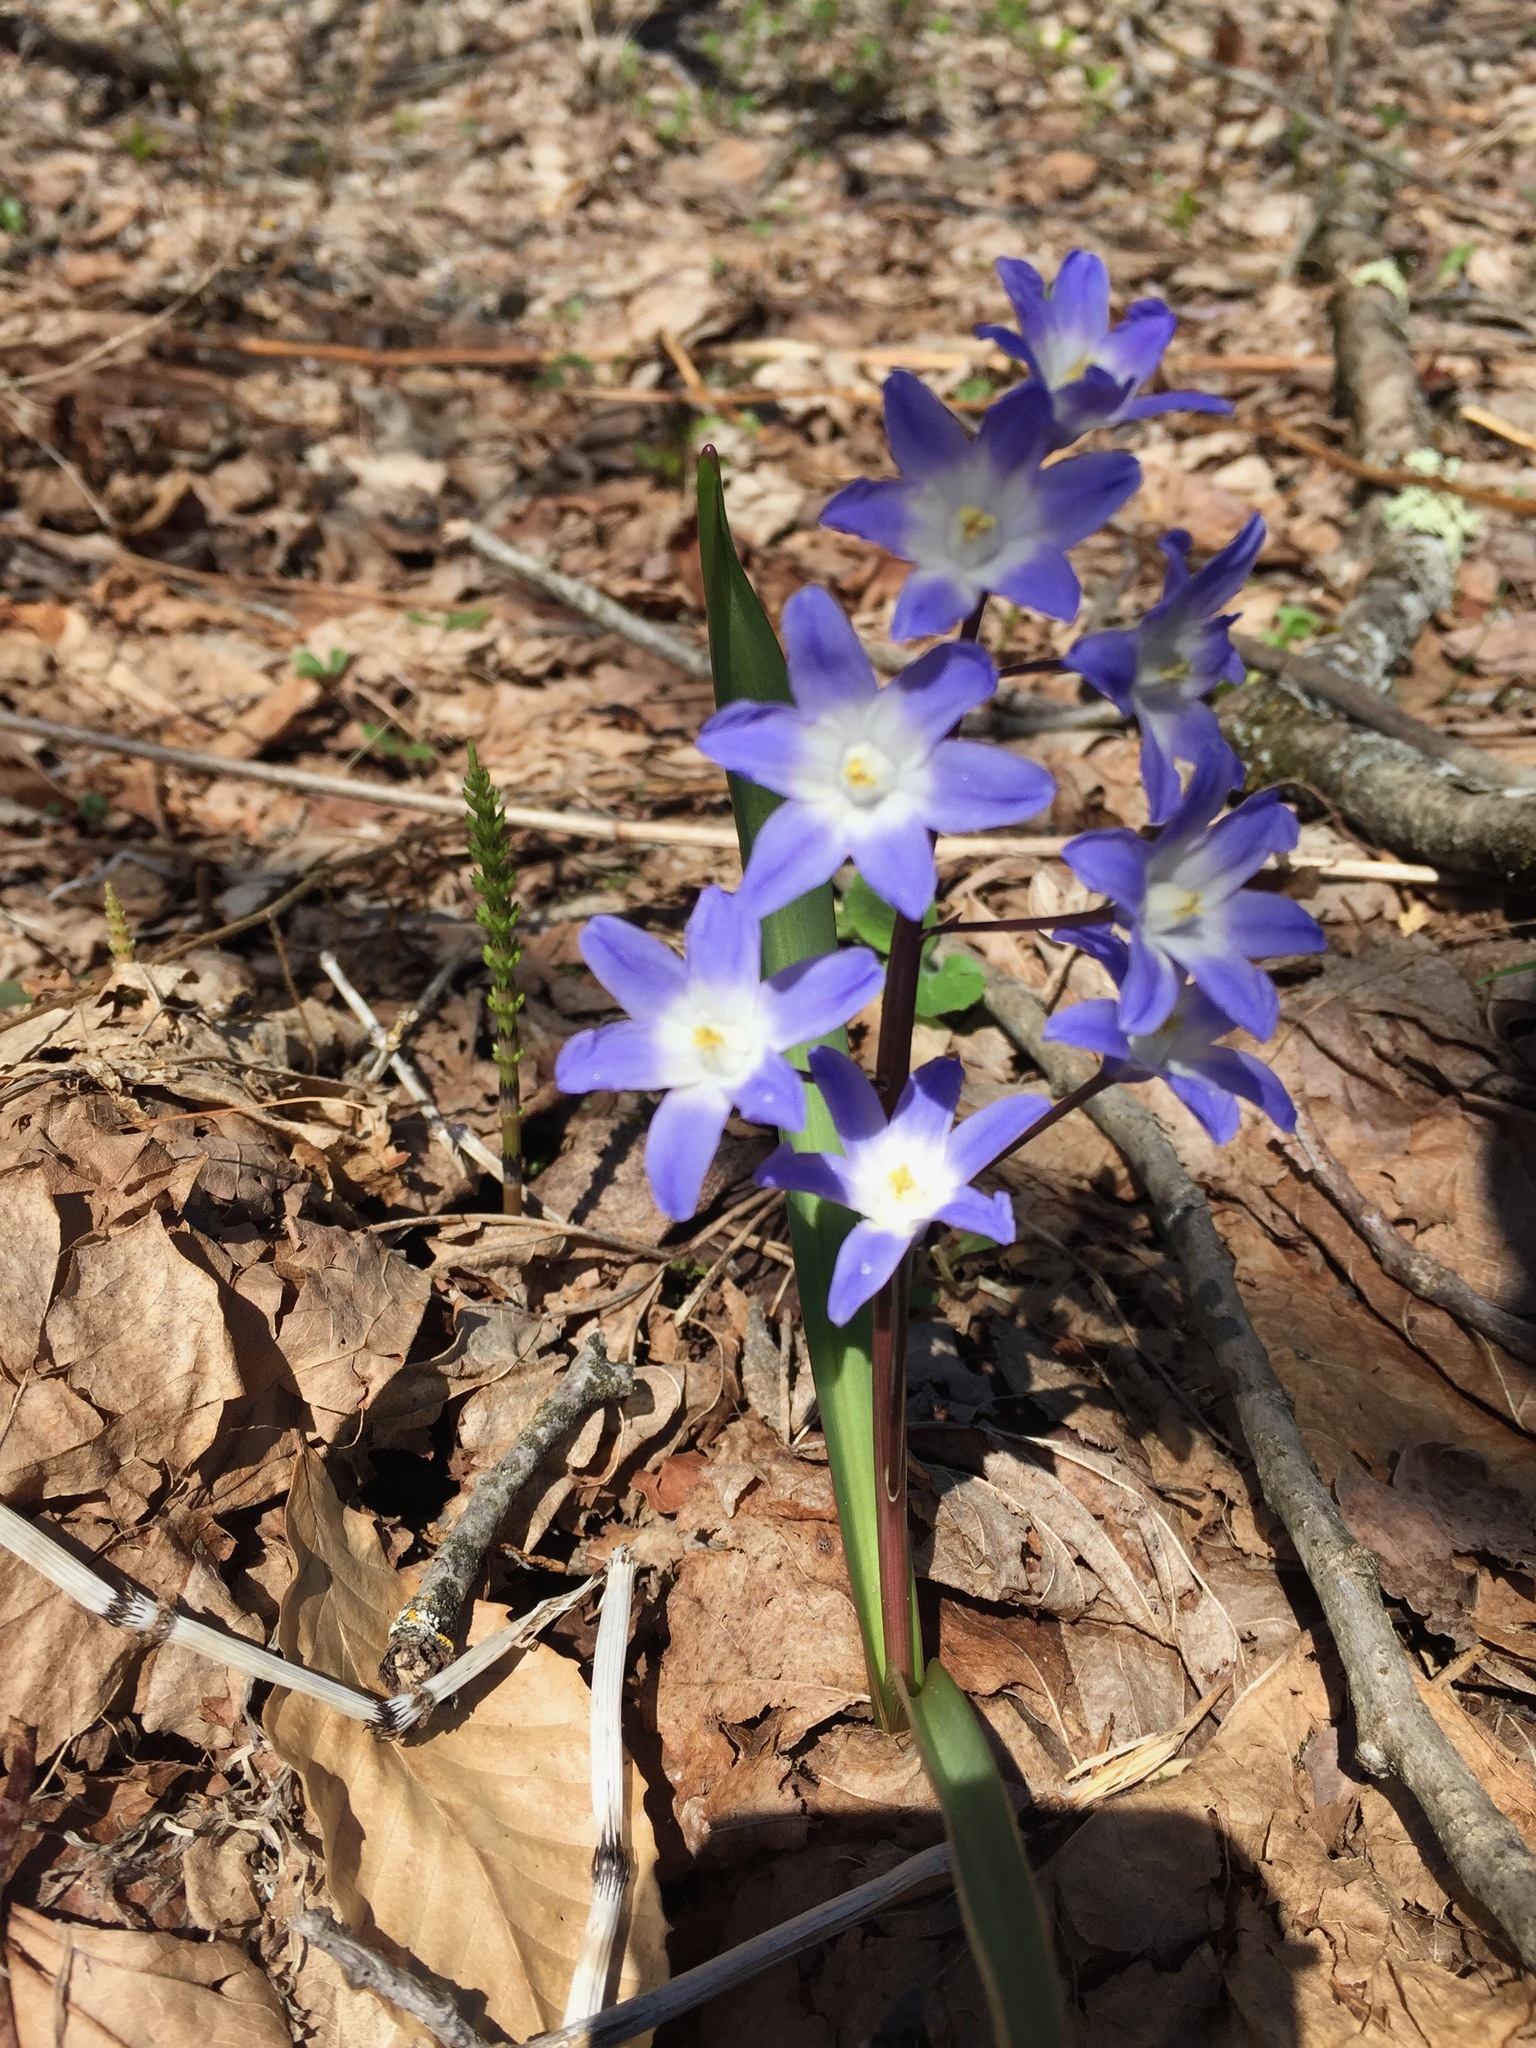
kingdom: Plantae
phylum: Tracheophyta
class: Liliopsida
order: Asparagales
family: Asparagaceae
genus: Scilla
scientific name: Scilla luciliae
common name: Boissier's glory-of-the-snow
